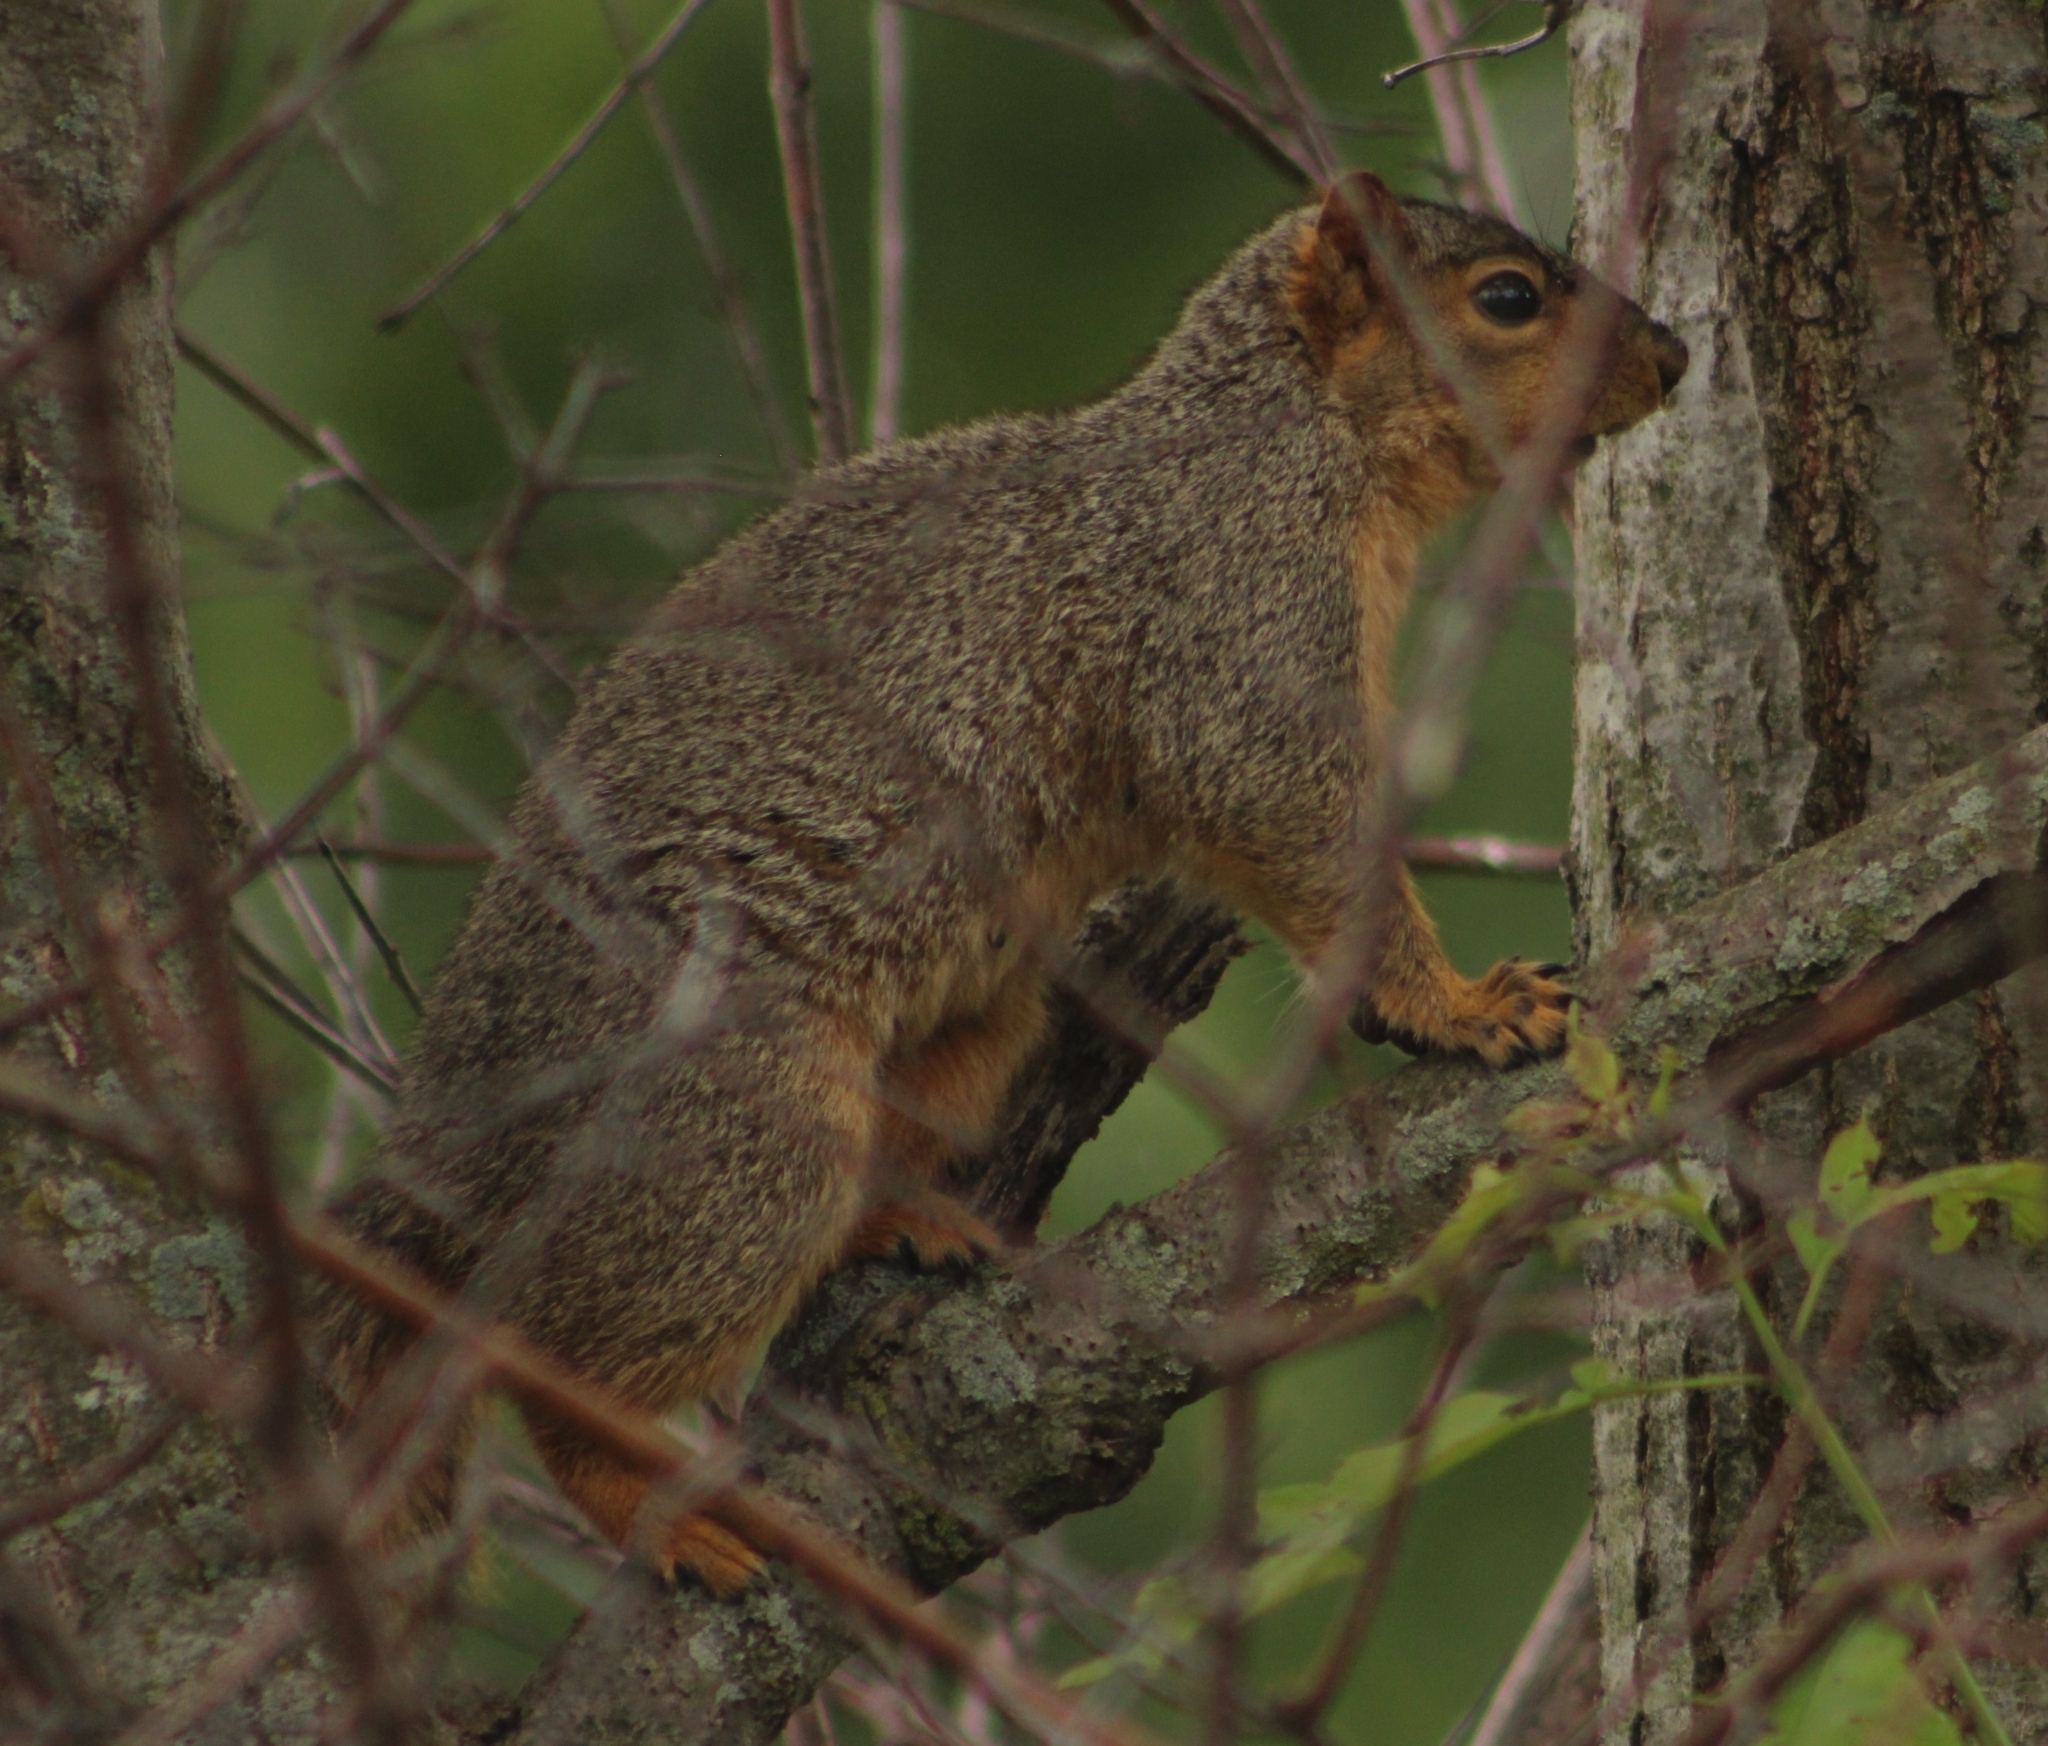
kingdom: Animalia
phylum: Chordata
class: Mammalia
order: Rodentia
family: Sciuridae
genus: Sciurus
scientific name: Sciurus niger
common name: Fox squirrel
